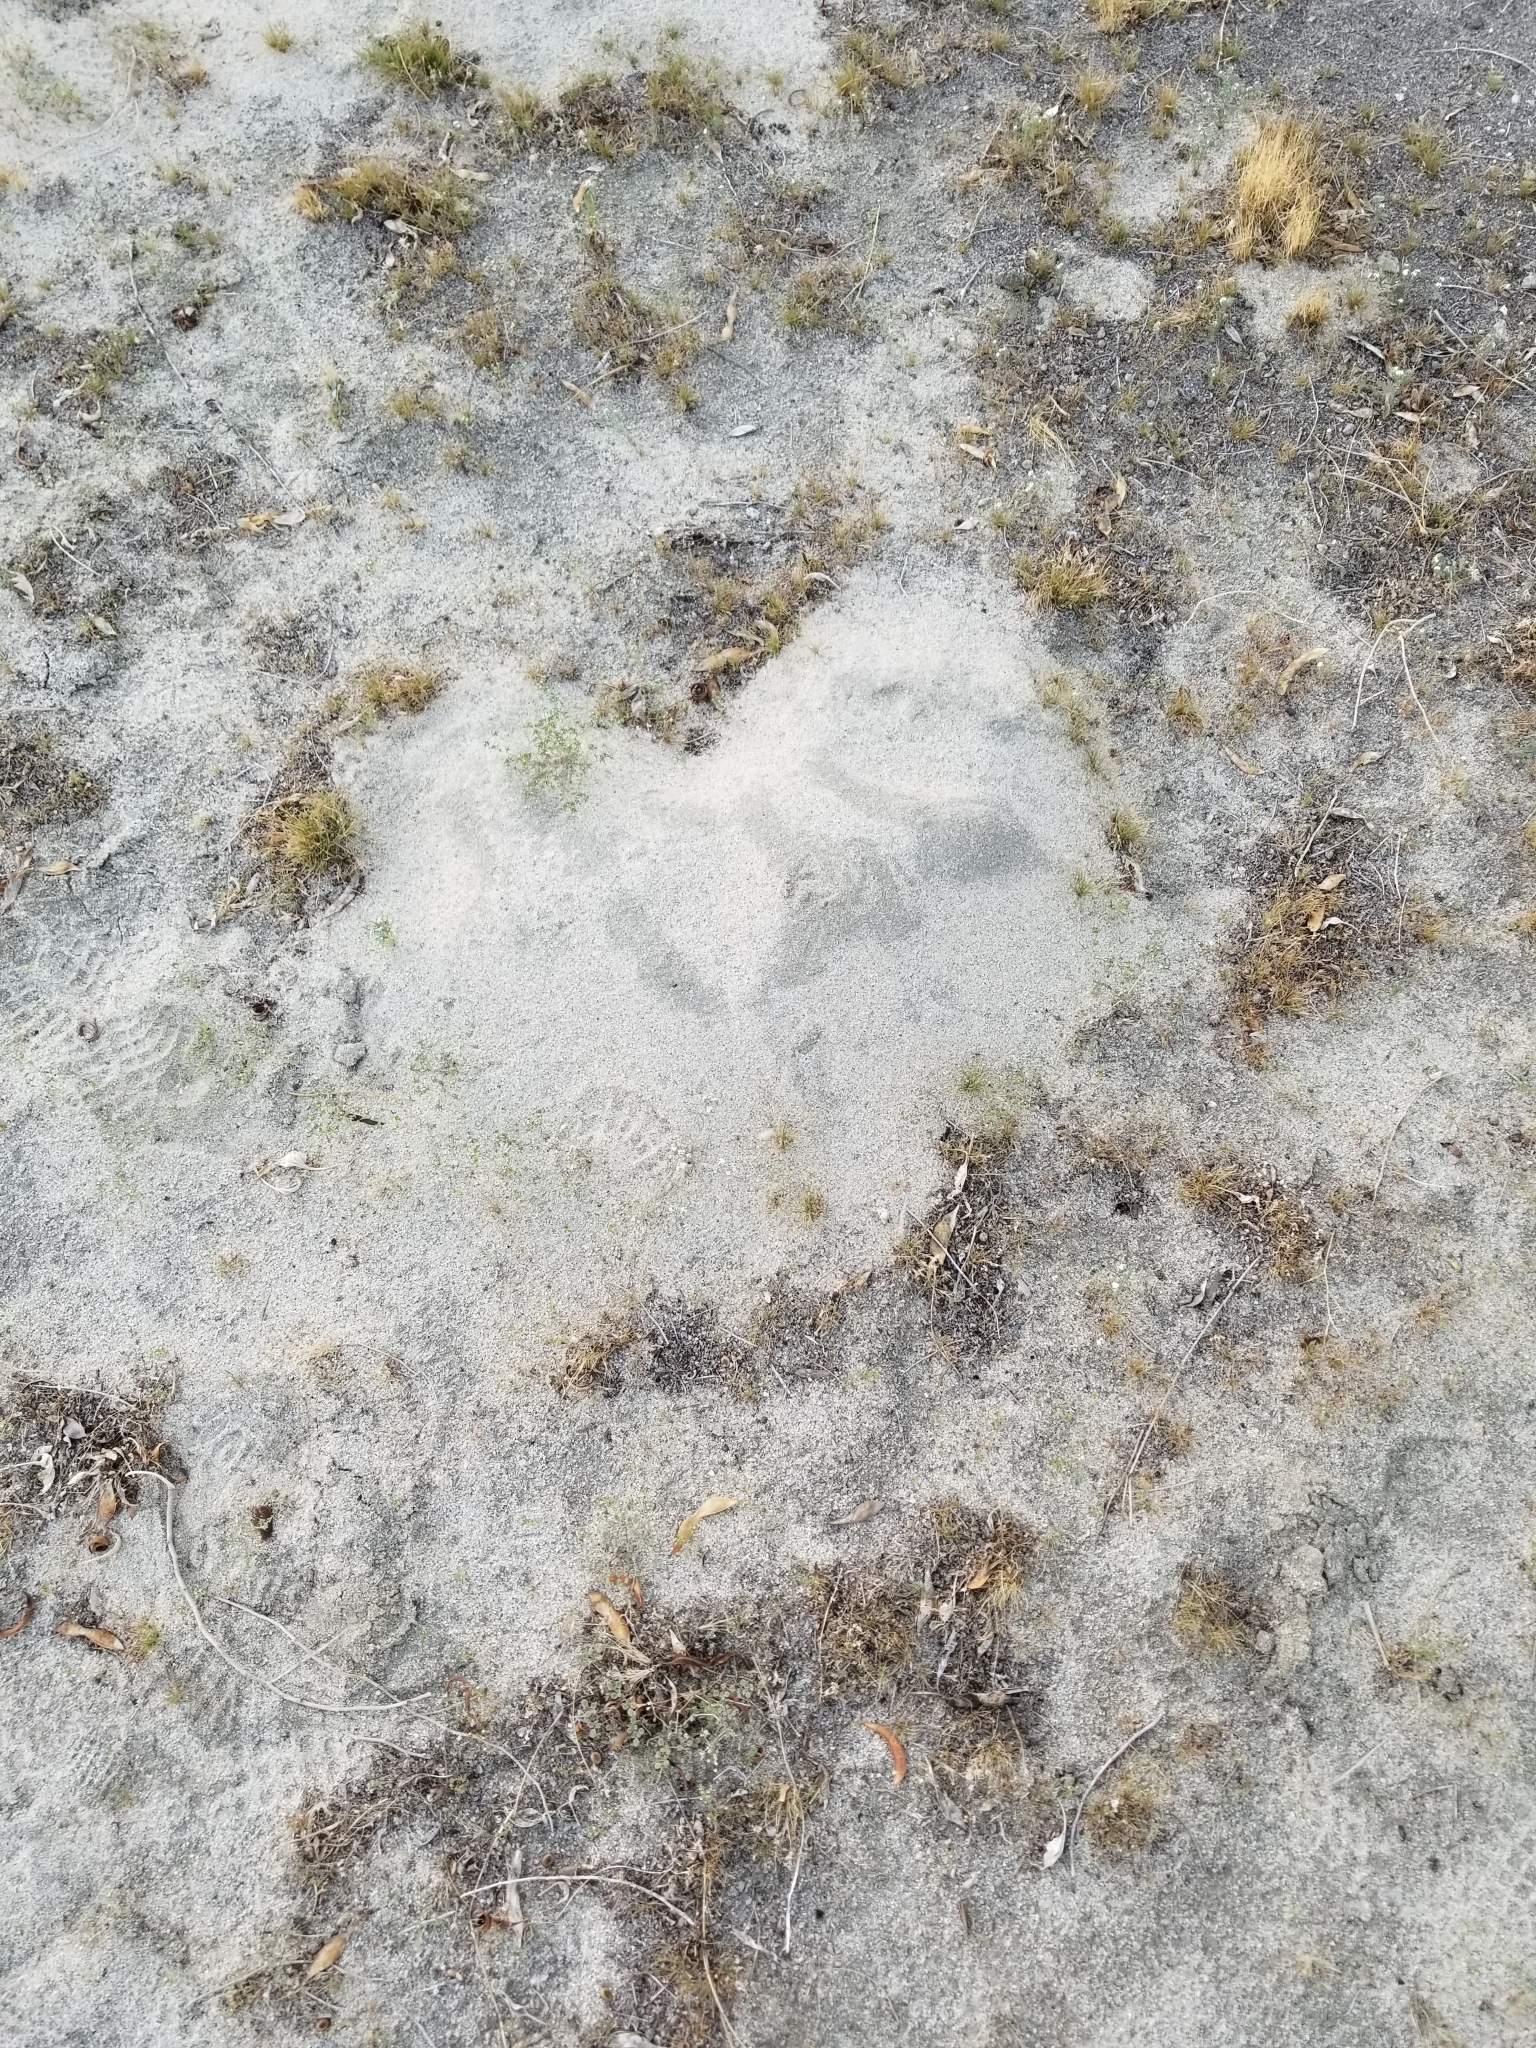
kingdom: Animalia
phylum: Chordata
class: Mammalia
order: Rodentia
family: Geomyidae
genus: Thomomys
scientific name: Thomomys bottae
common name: Botta's pocket gopher
